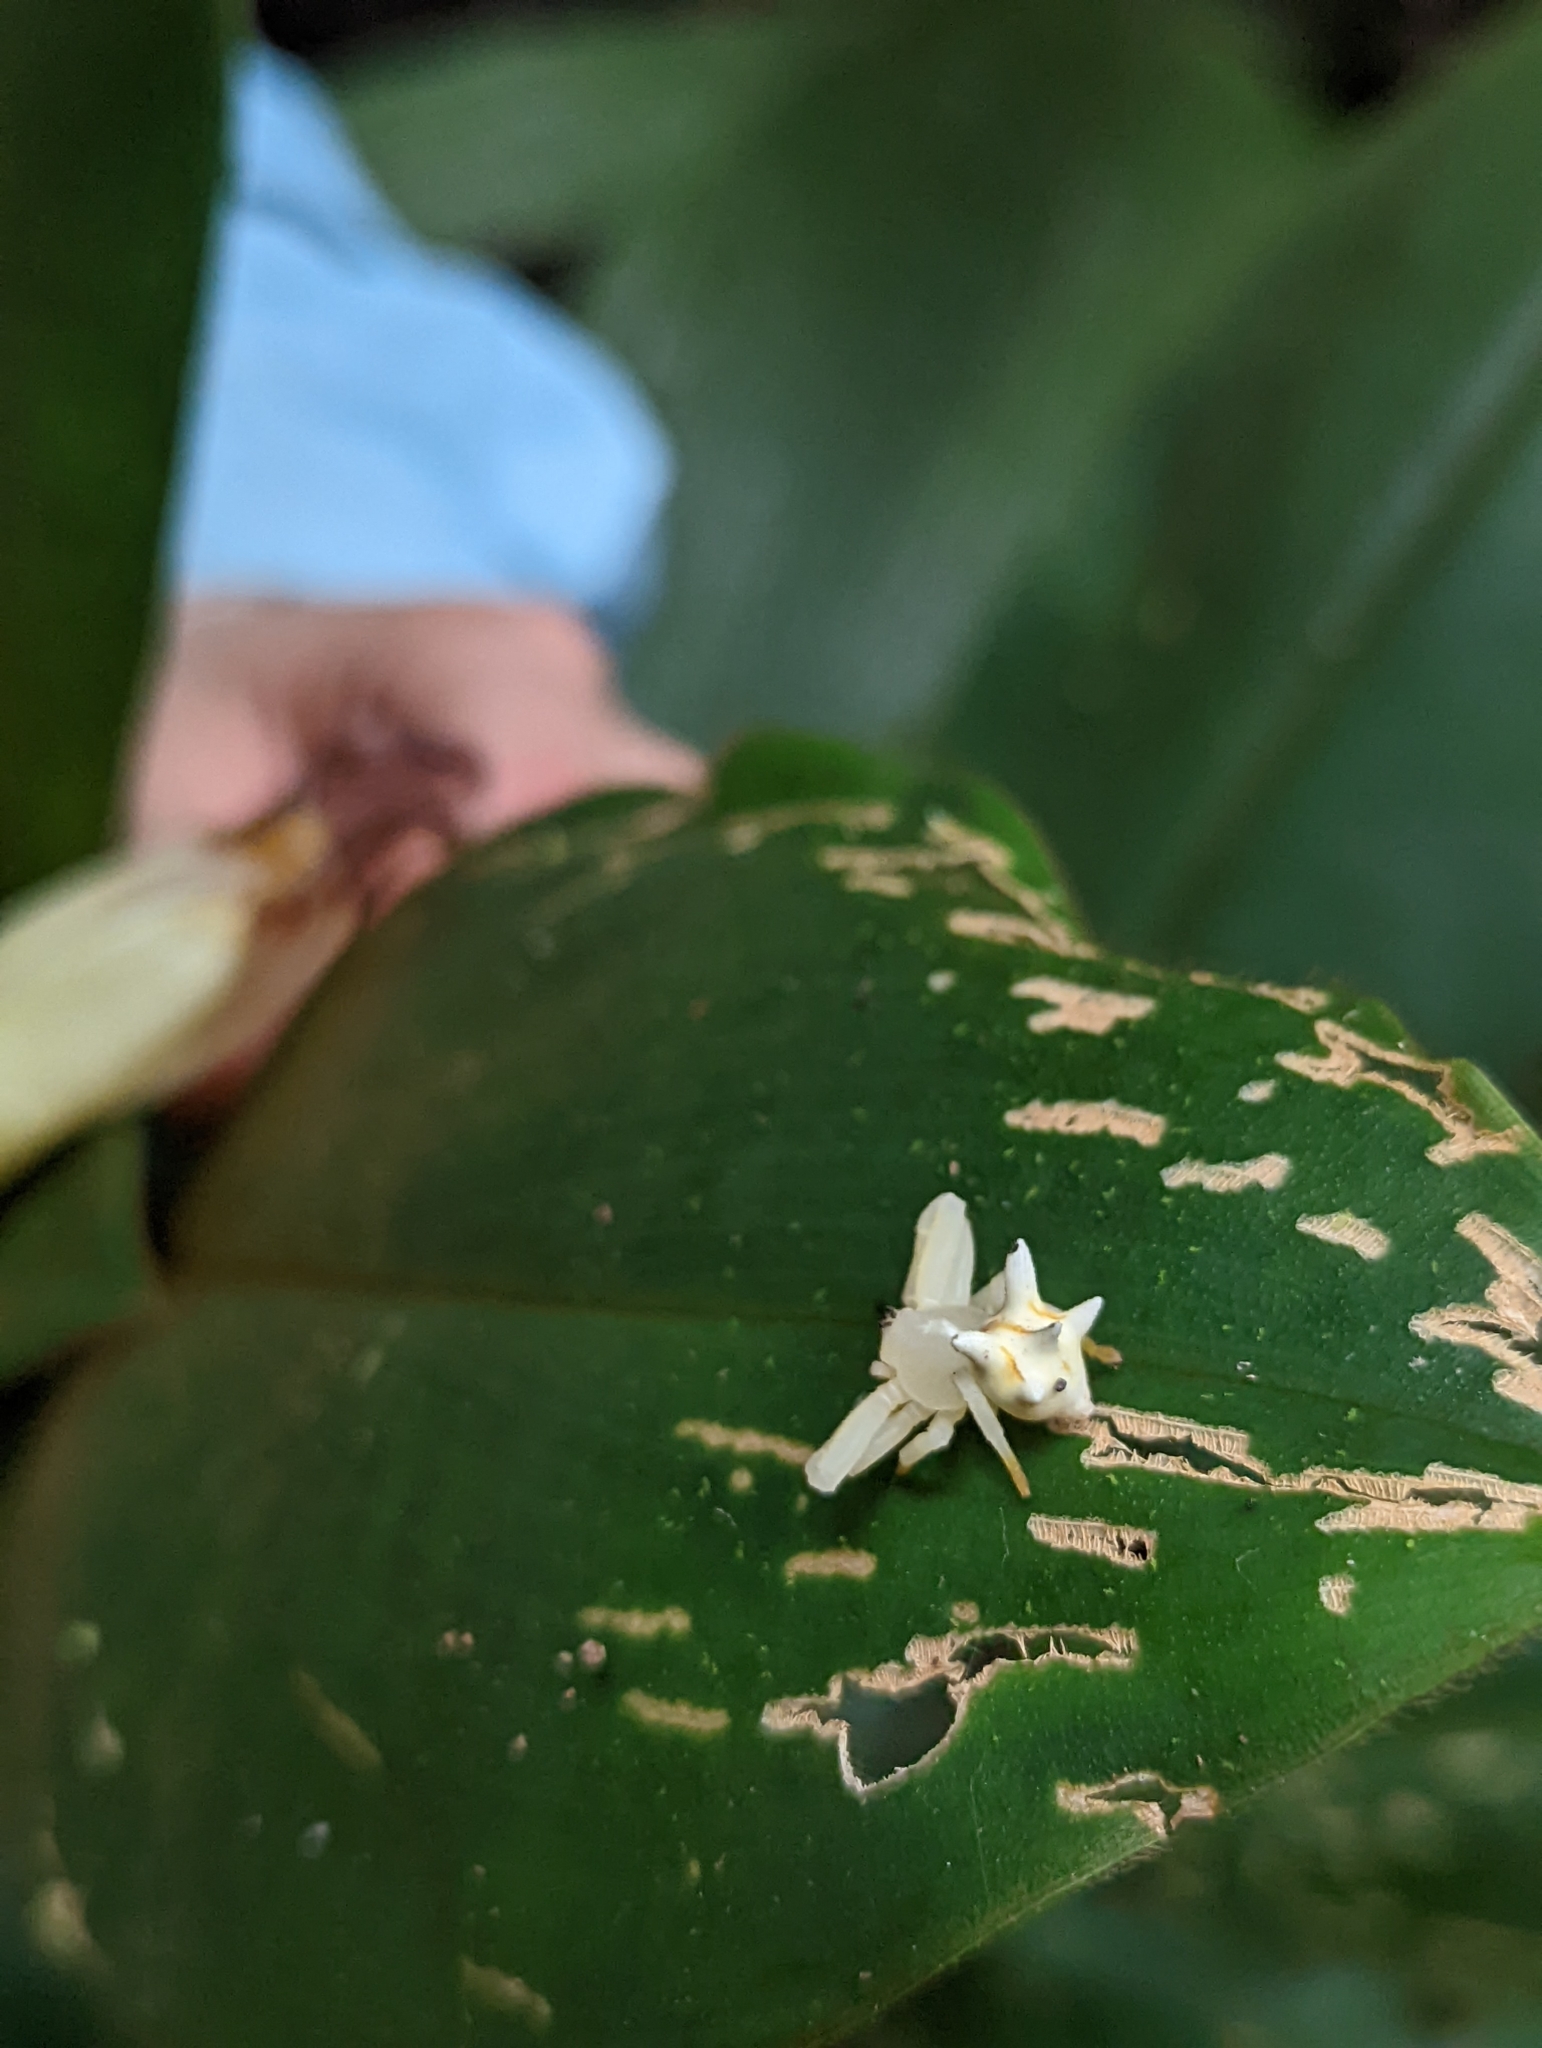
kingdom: Animalia
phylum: Arthropoda
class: Arachnida
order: Araneae
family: Thomisidae
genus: Epicadus
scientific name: Epicadus heterogaster
